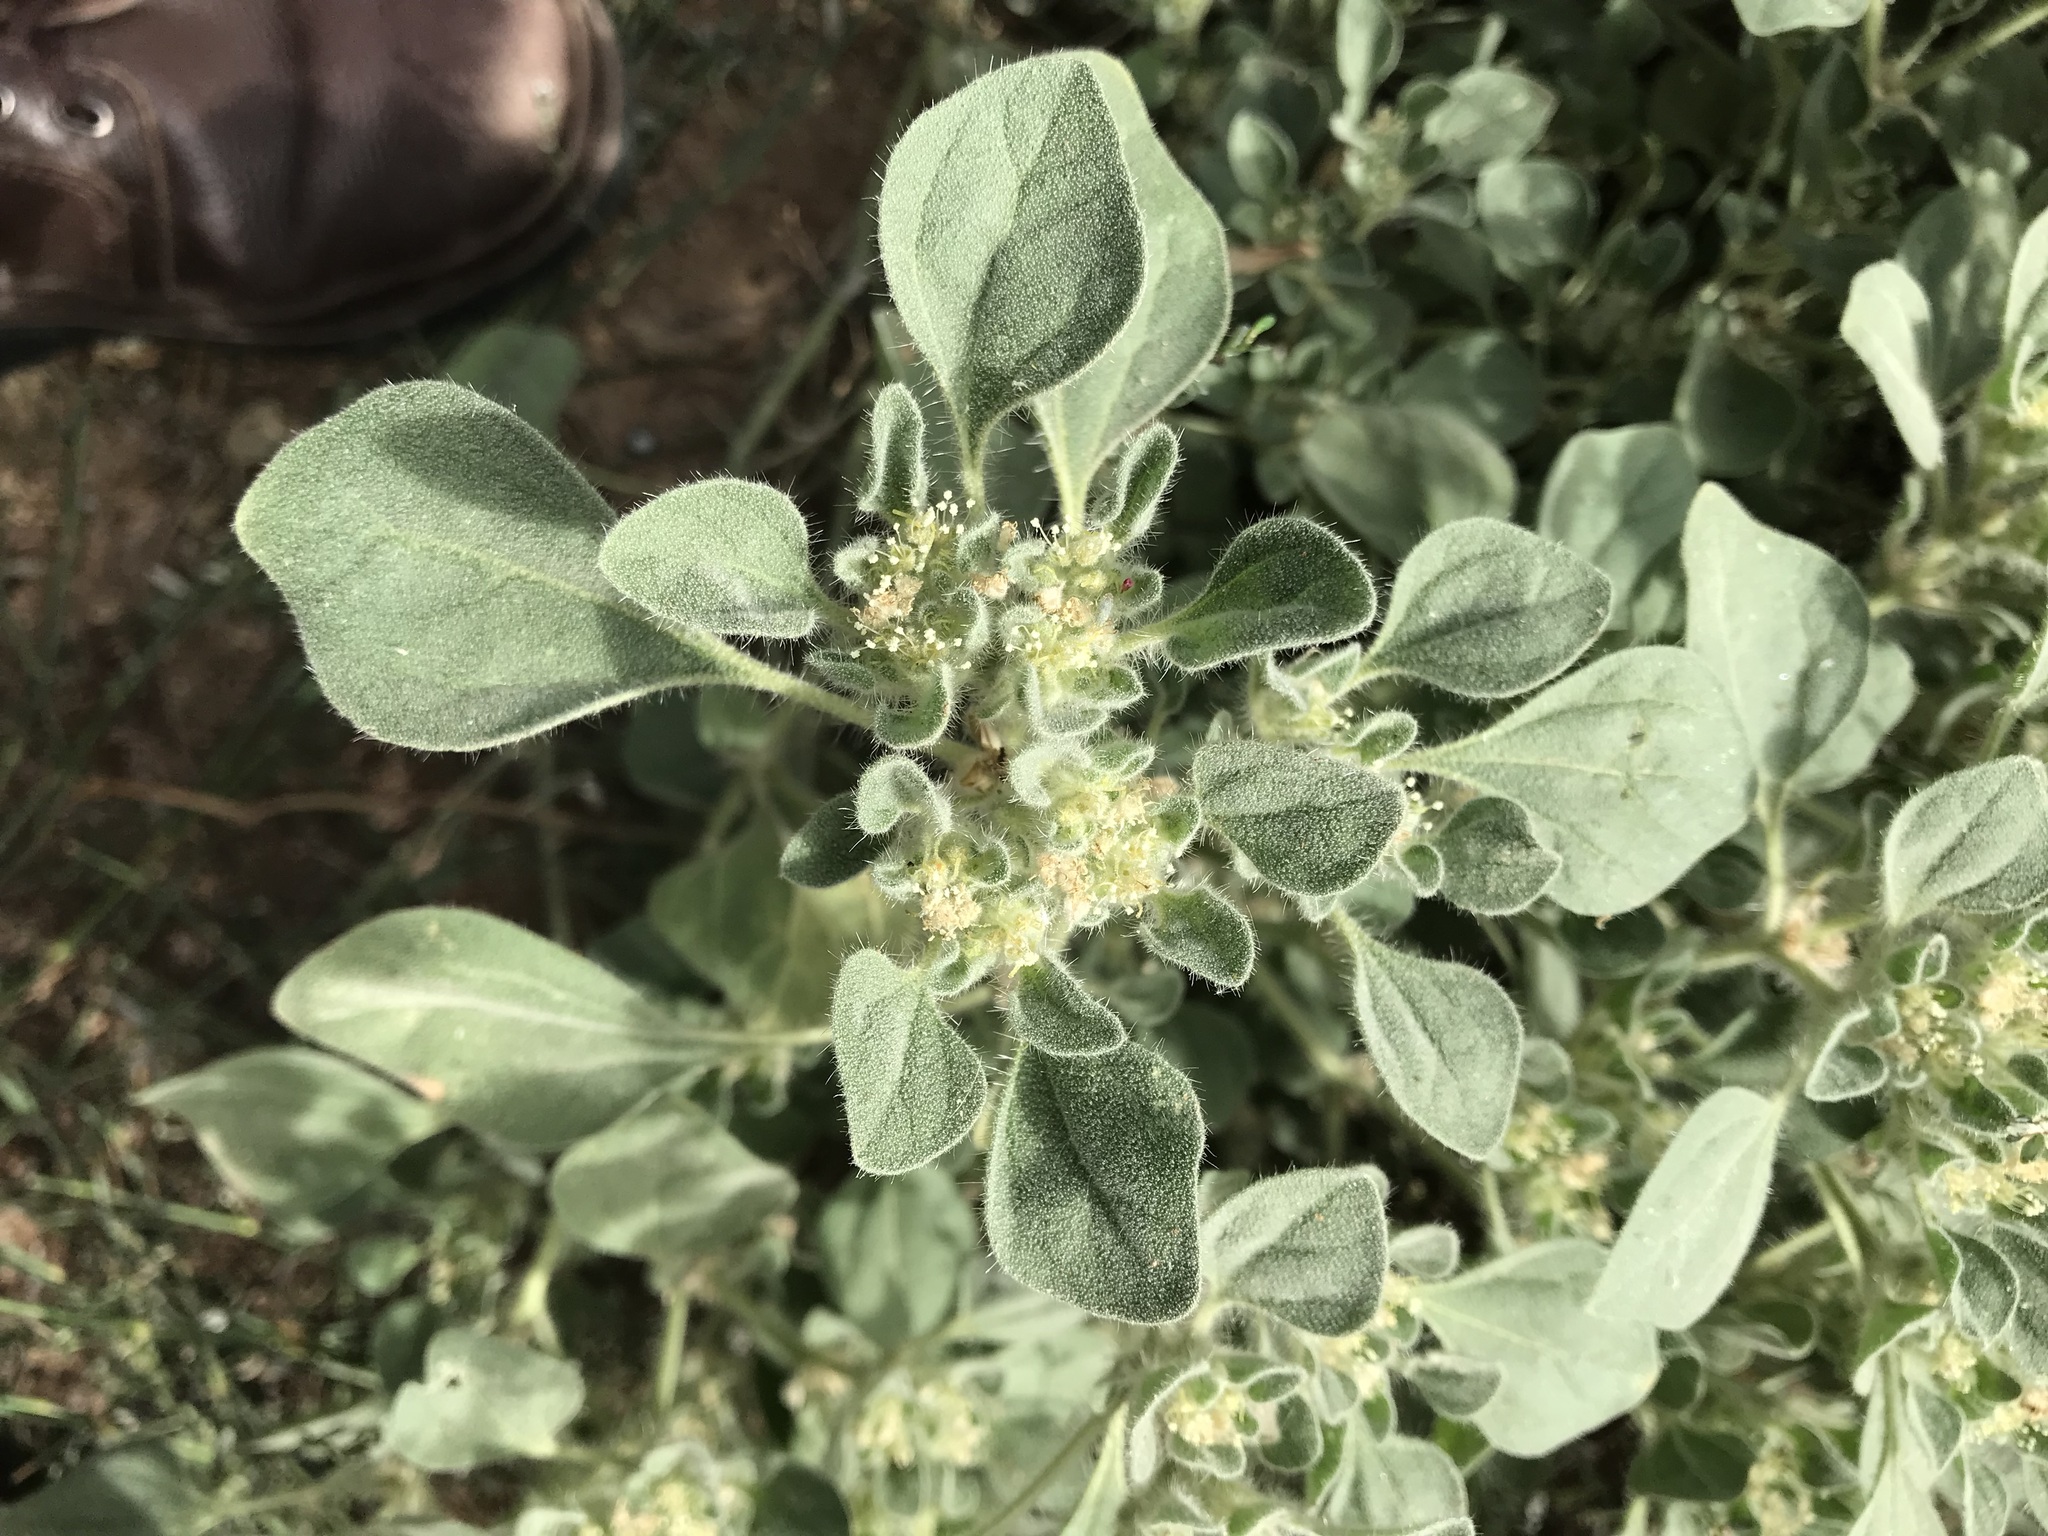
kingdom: Plantae
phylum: Tracheophyta
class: Magnoliopsida
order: Malpighiales
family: Euphorbiaceae
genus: Croton
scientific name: Croton setiger
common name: Dove weed
